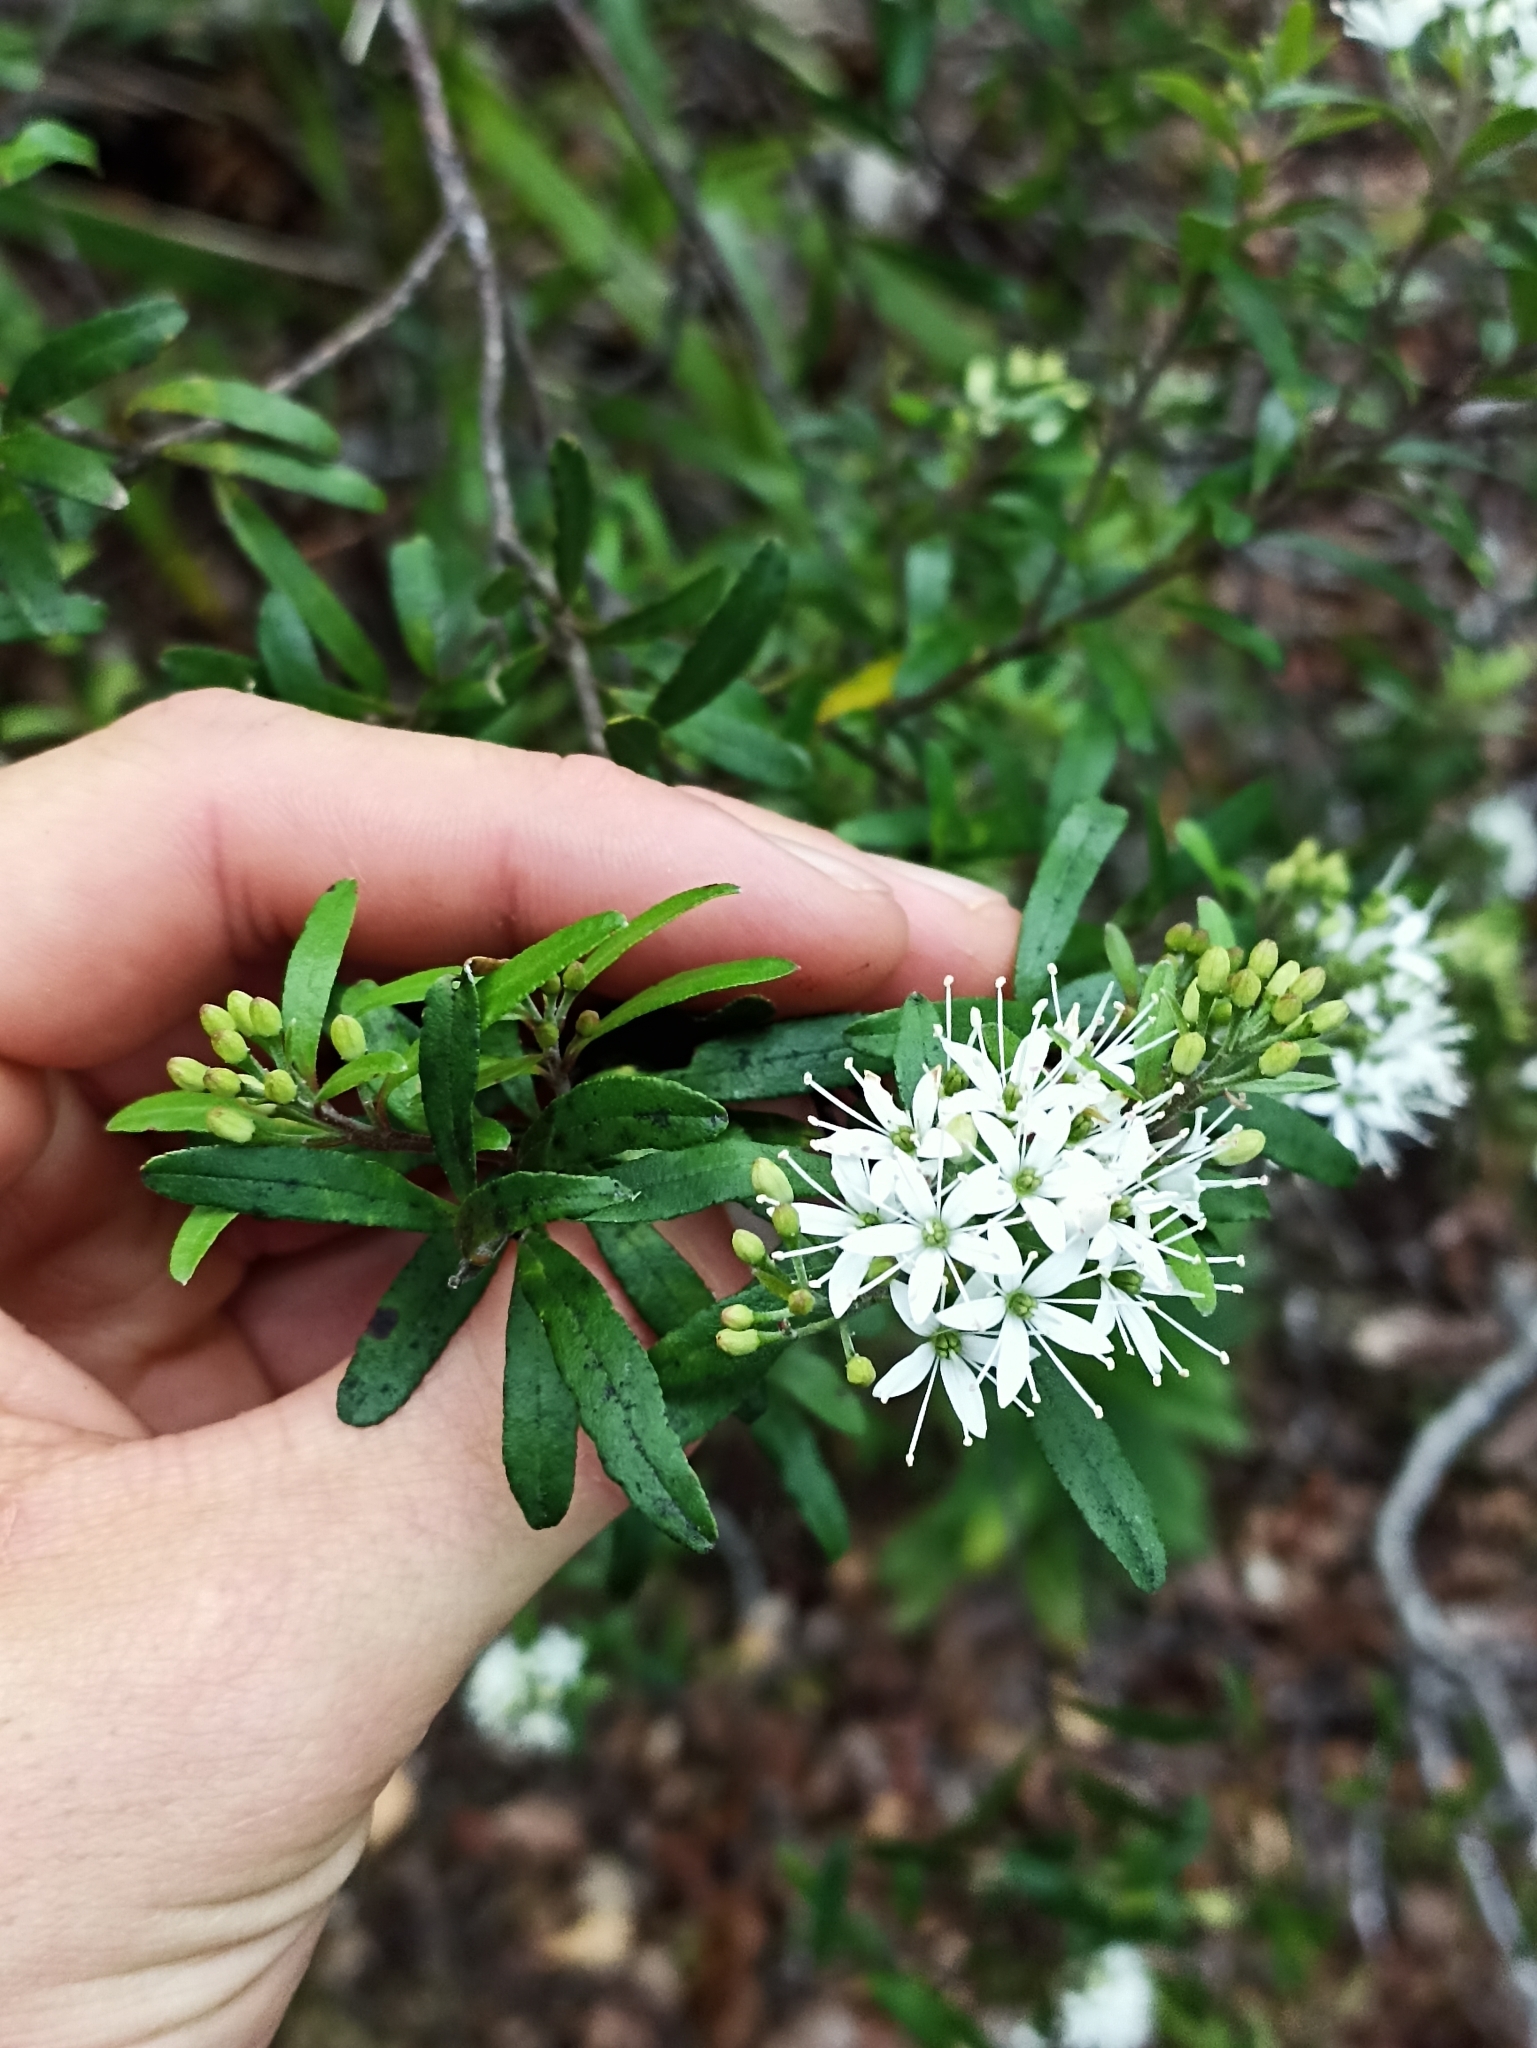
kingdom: Plantae
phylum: Tracheophyta
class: Magnoliopsida
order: Sapindales
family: Rutaceae
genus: Leionema
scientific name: Leionema nudum
